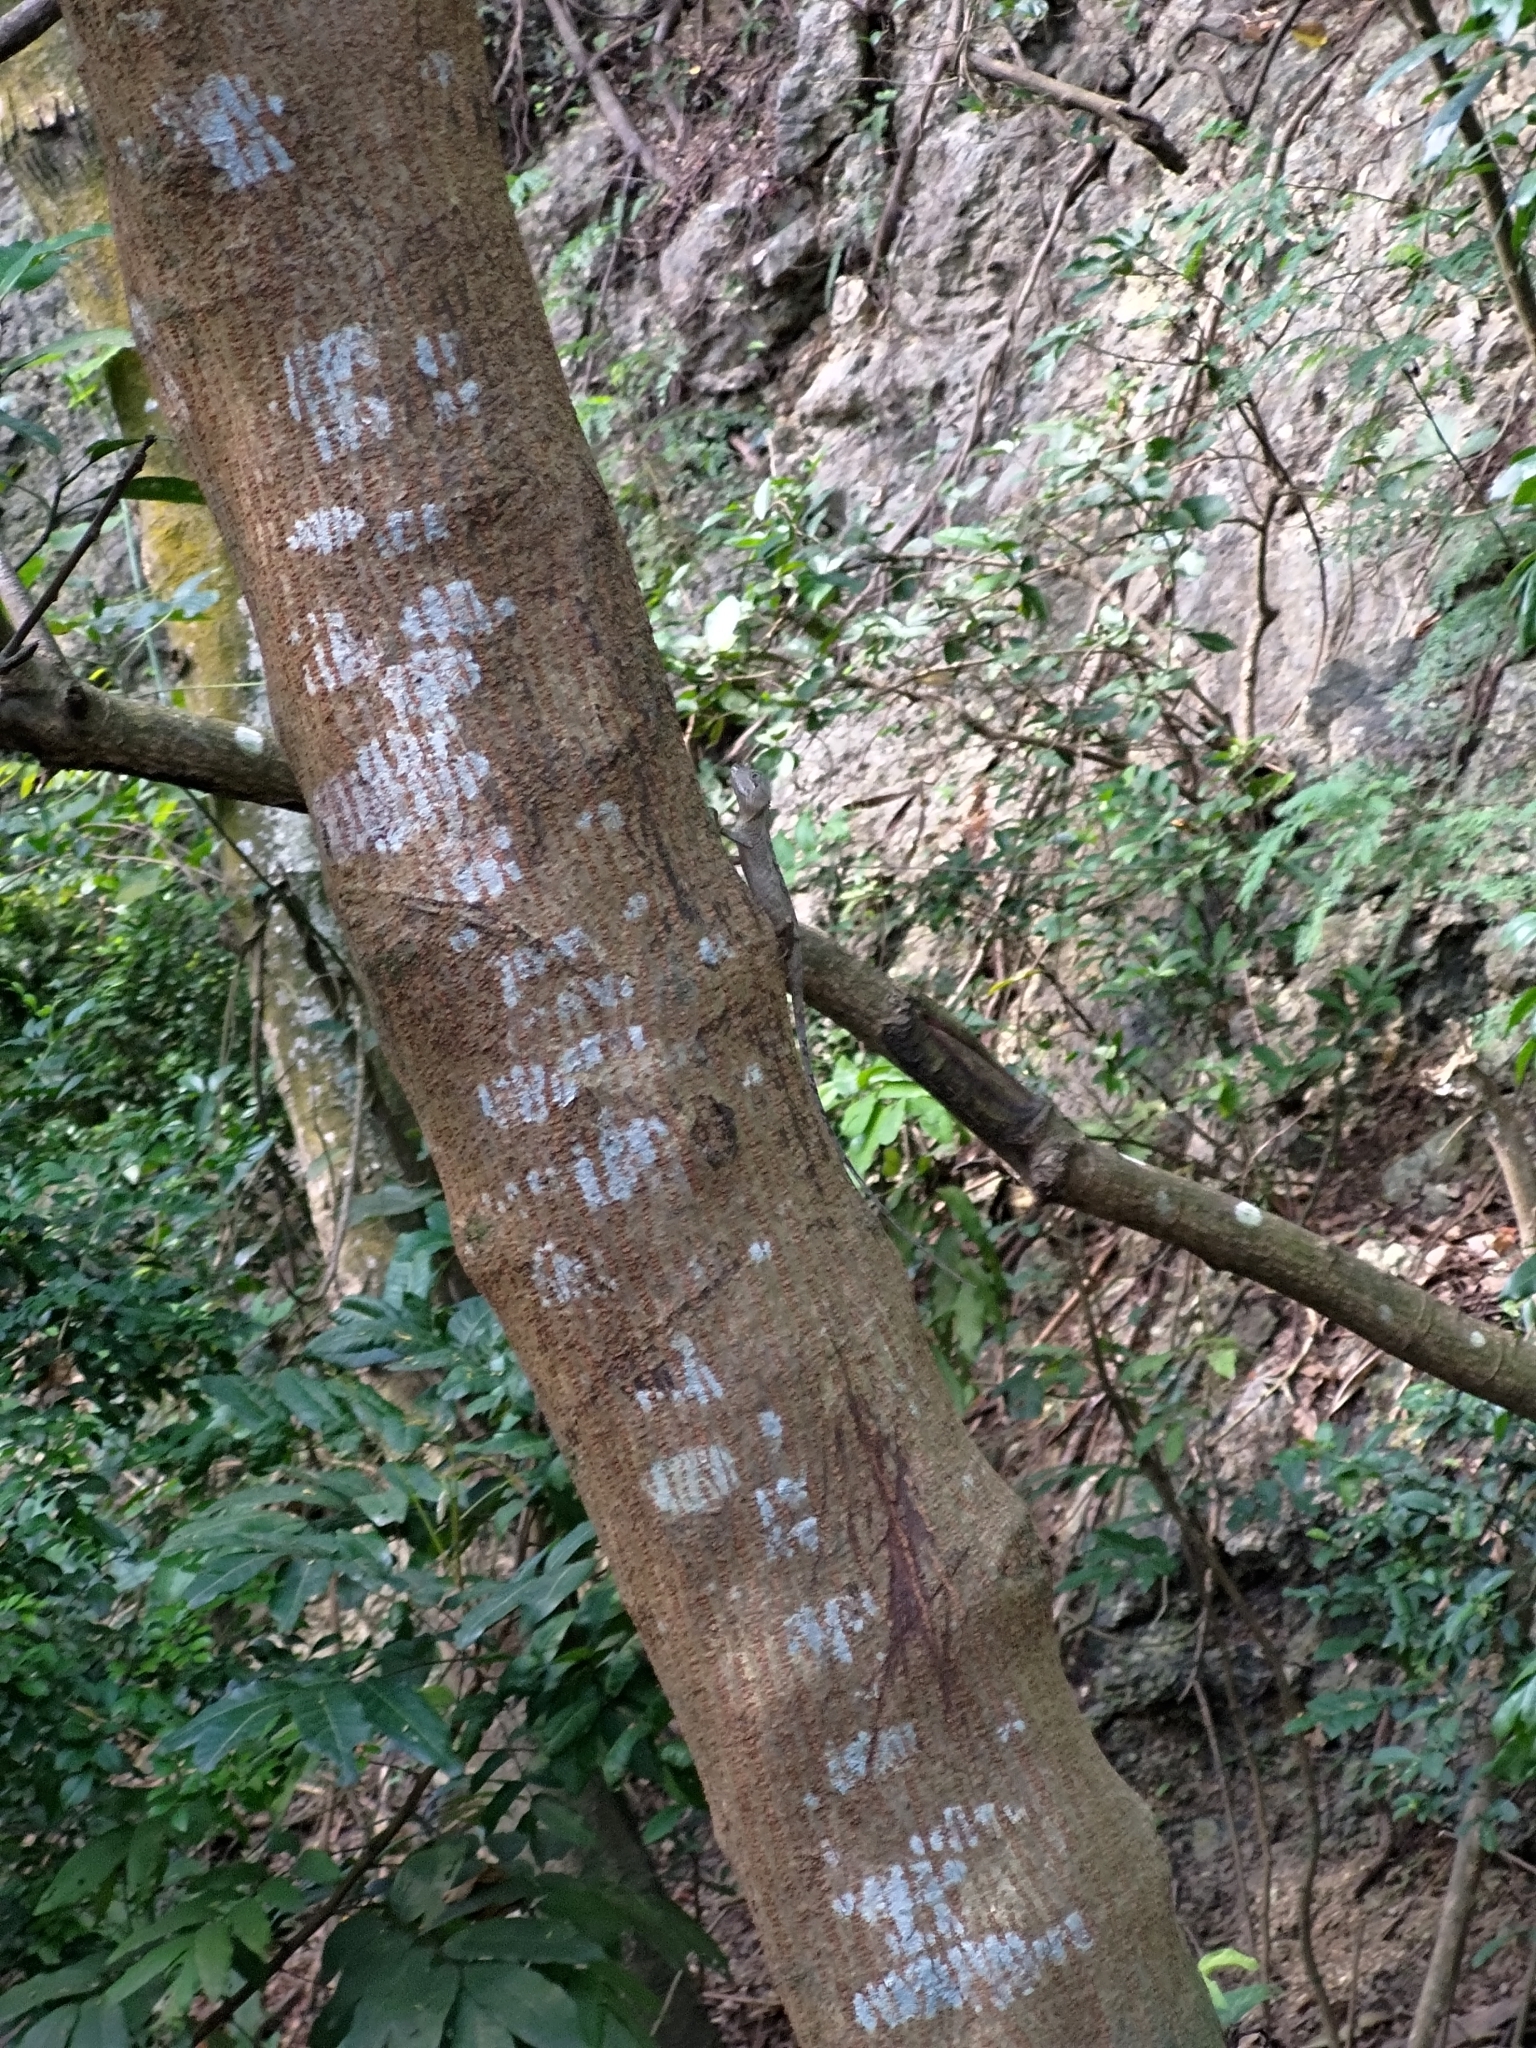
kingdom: Animalia
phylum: Chordata
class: Squamata
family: Agamidae
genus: Diploderma
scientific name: Diploderma swinhonis
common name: Taiwan japalure
